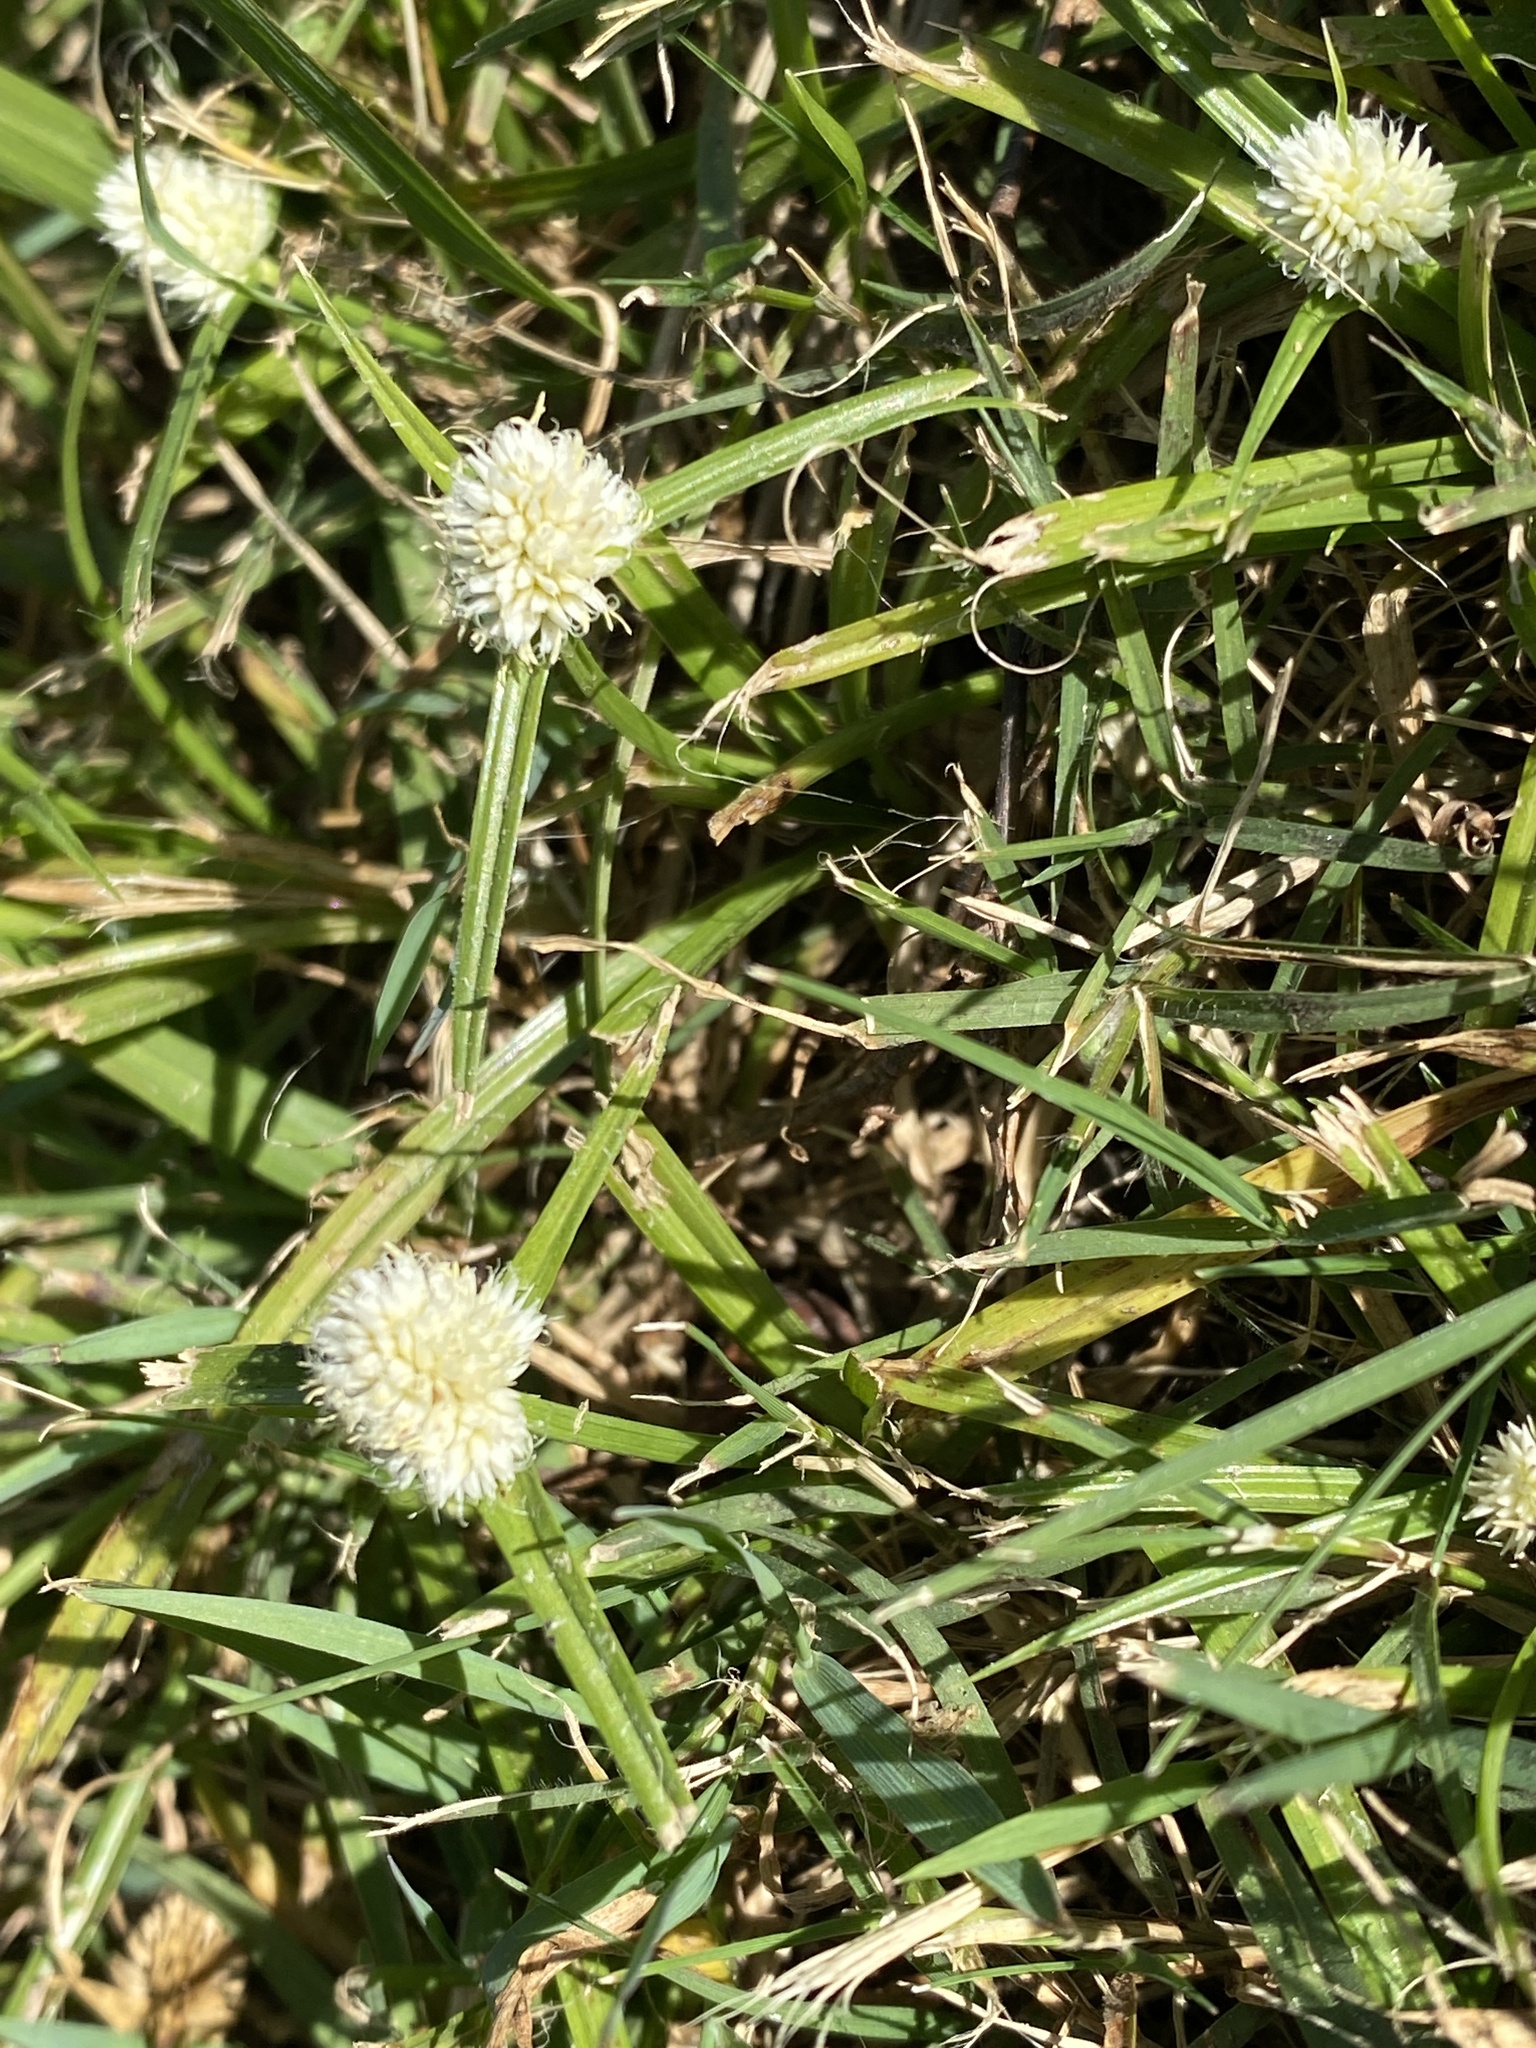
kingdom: Plantae
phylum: Tracheophyta
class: Liliopsida
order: Poales
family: Cyperaceae
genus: Cyperus
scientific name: Cyperus sesquiflorus
